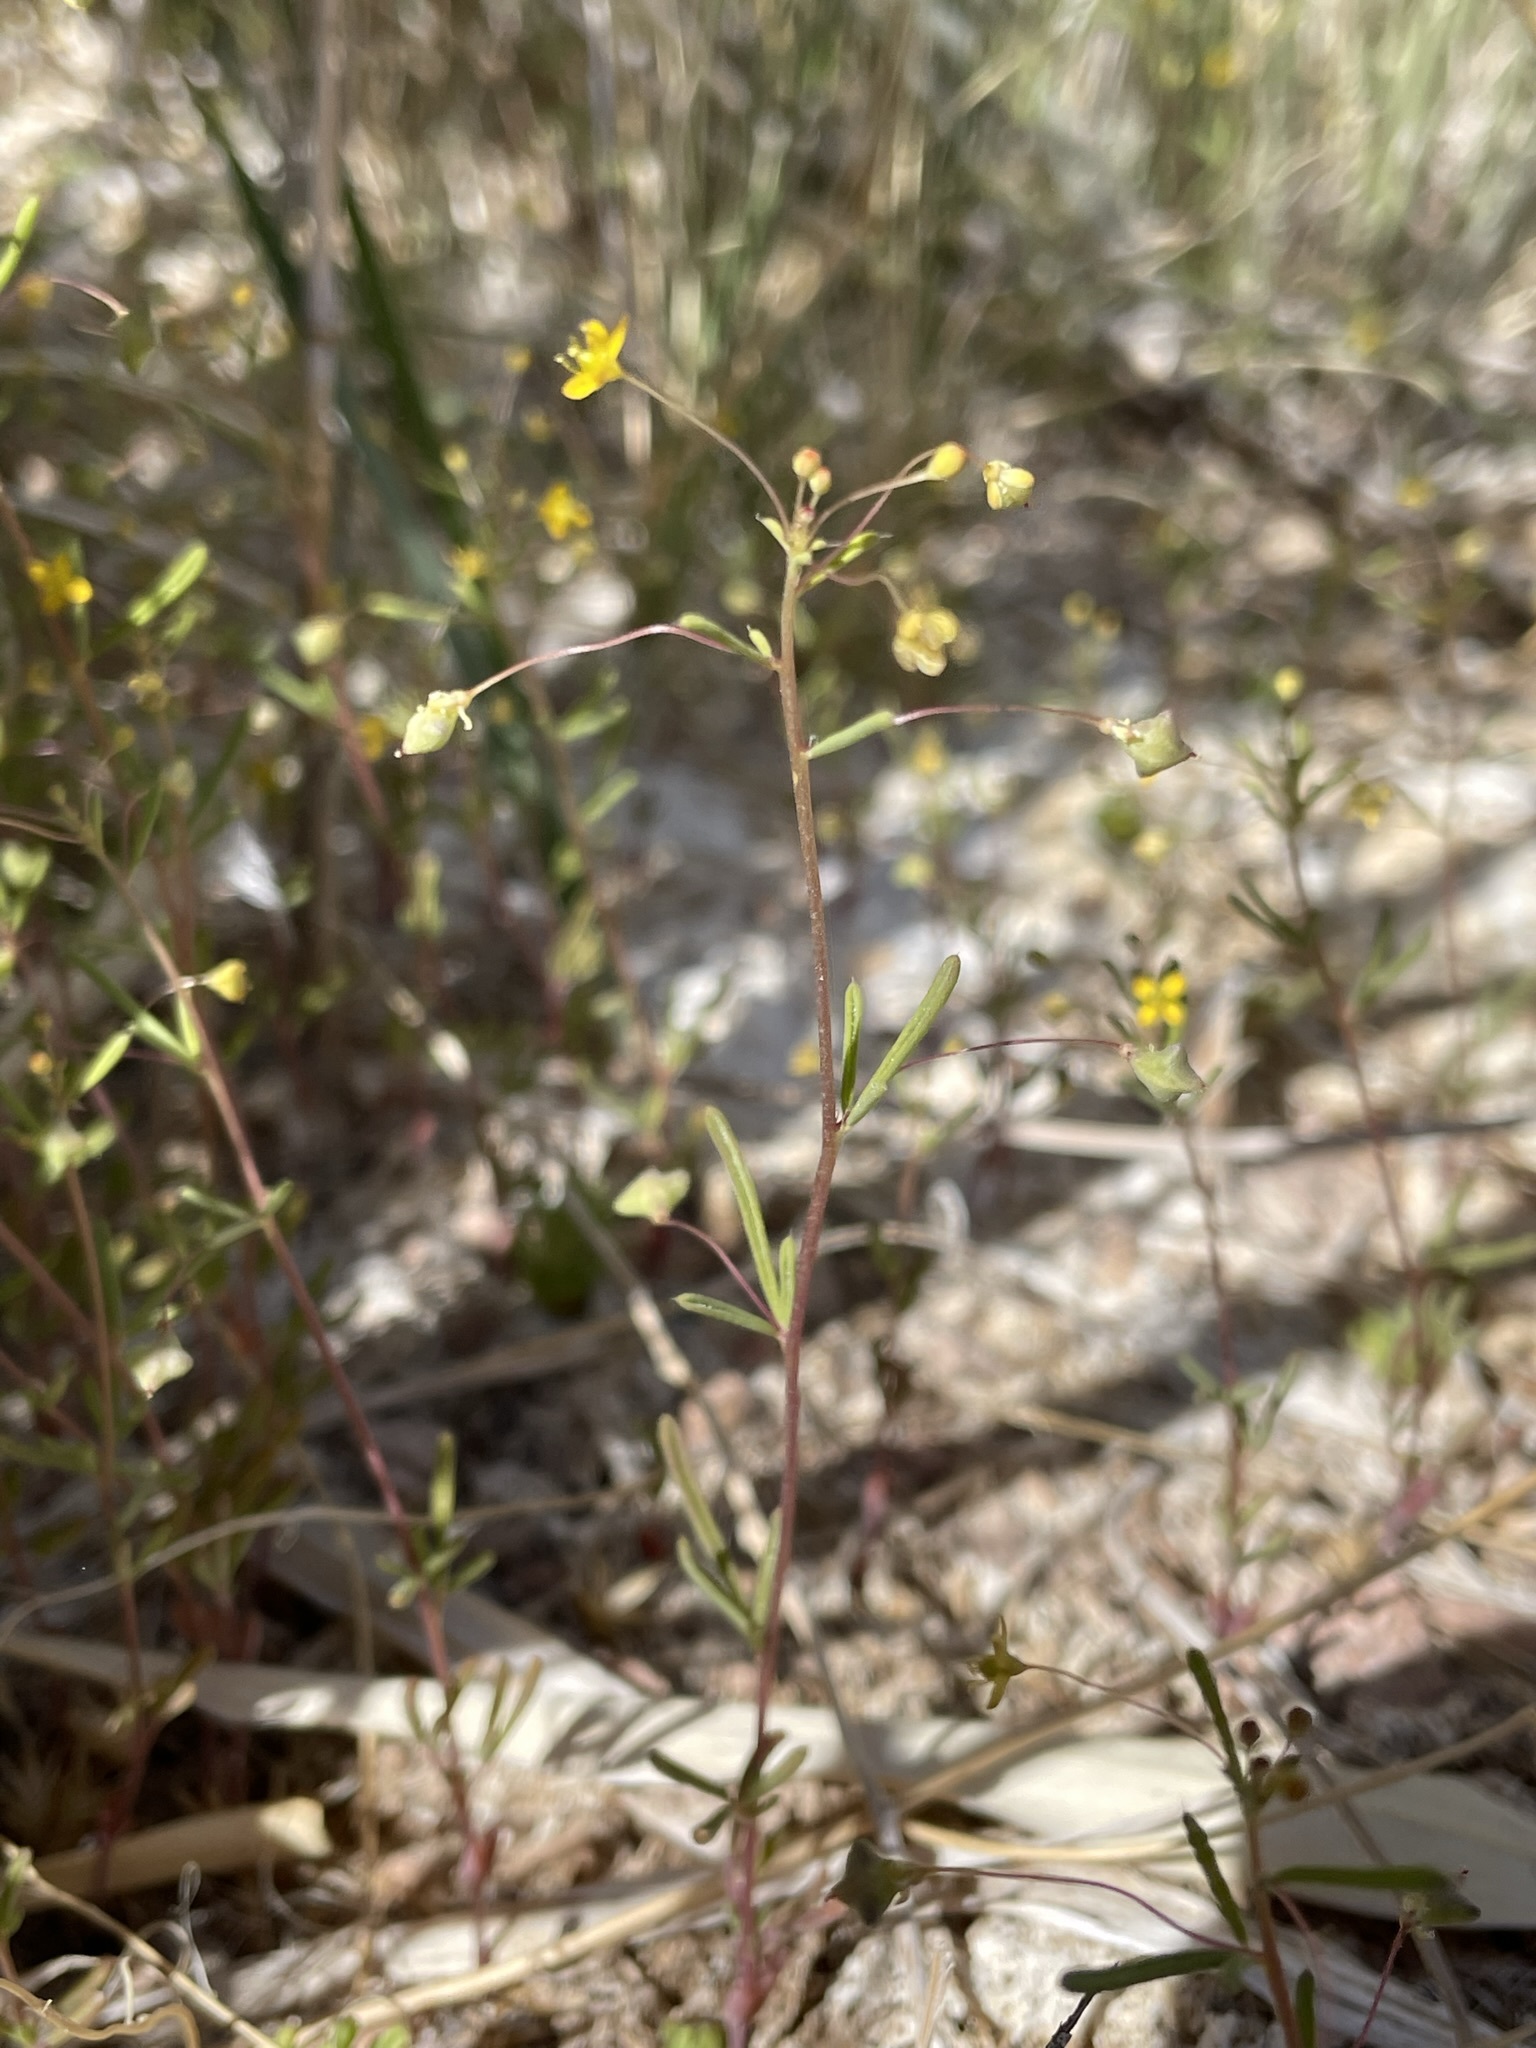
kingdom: Plantae
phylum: Tracheophyta
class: Magnoliopsida
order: Brassicales
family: Cleomaceae
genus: Cleomella
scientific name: Cleomella parviflora
